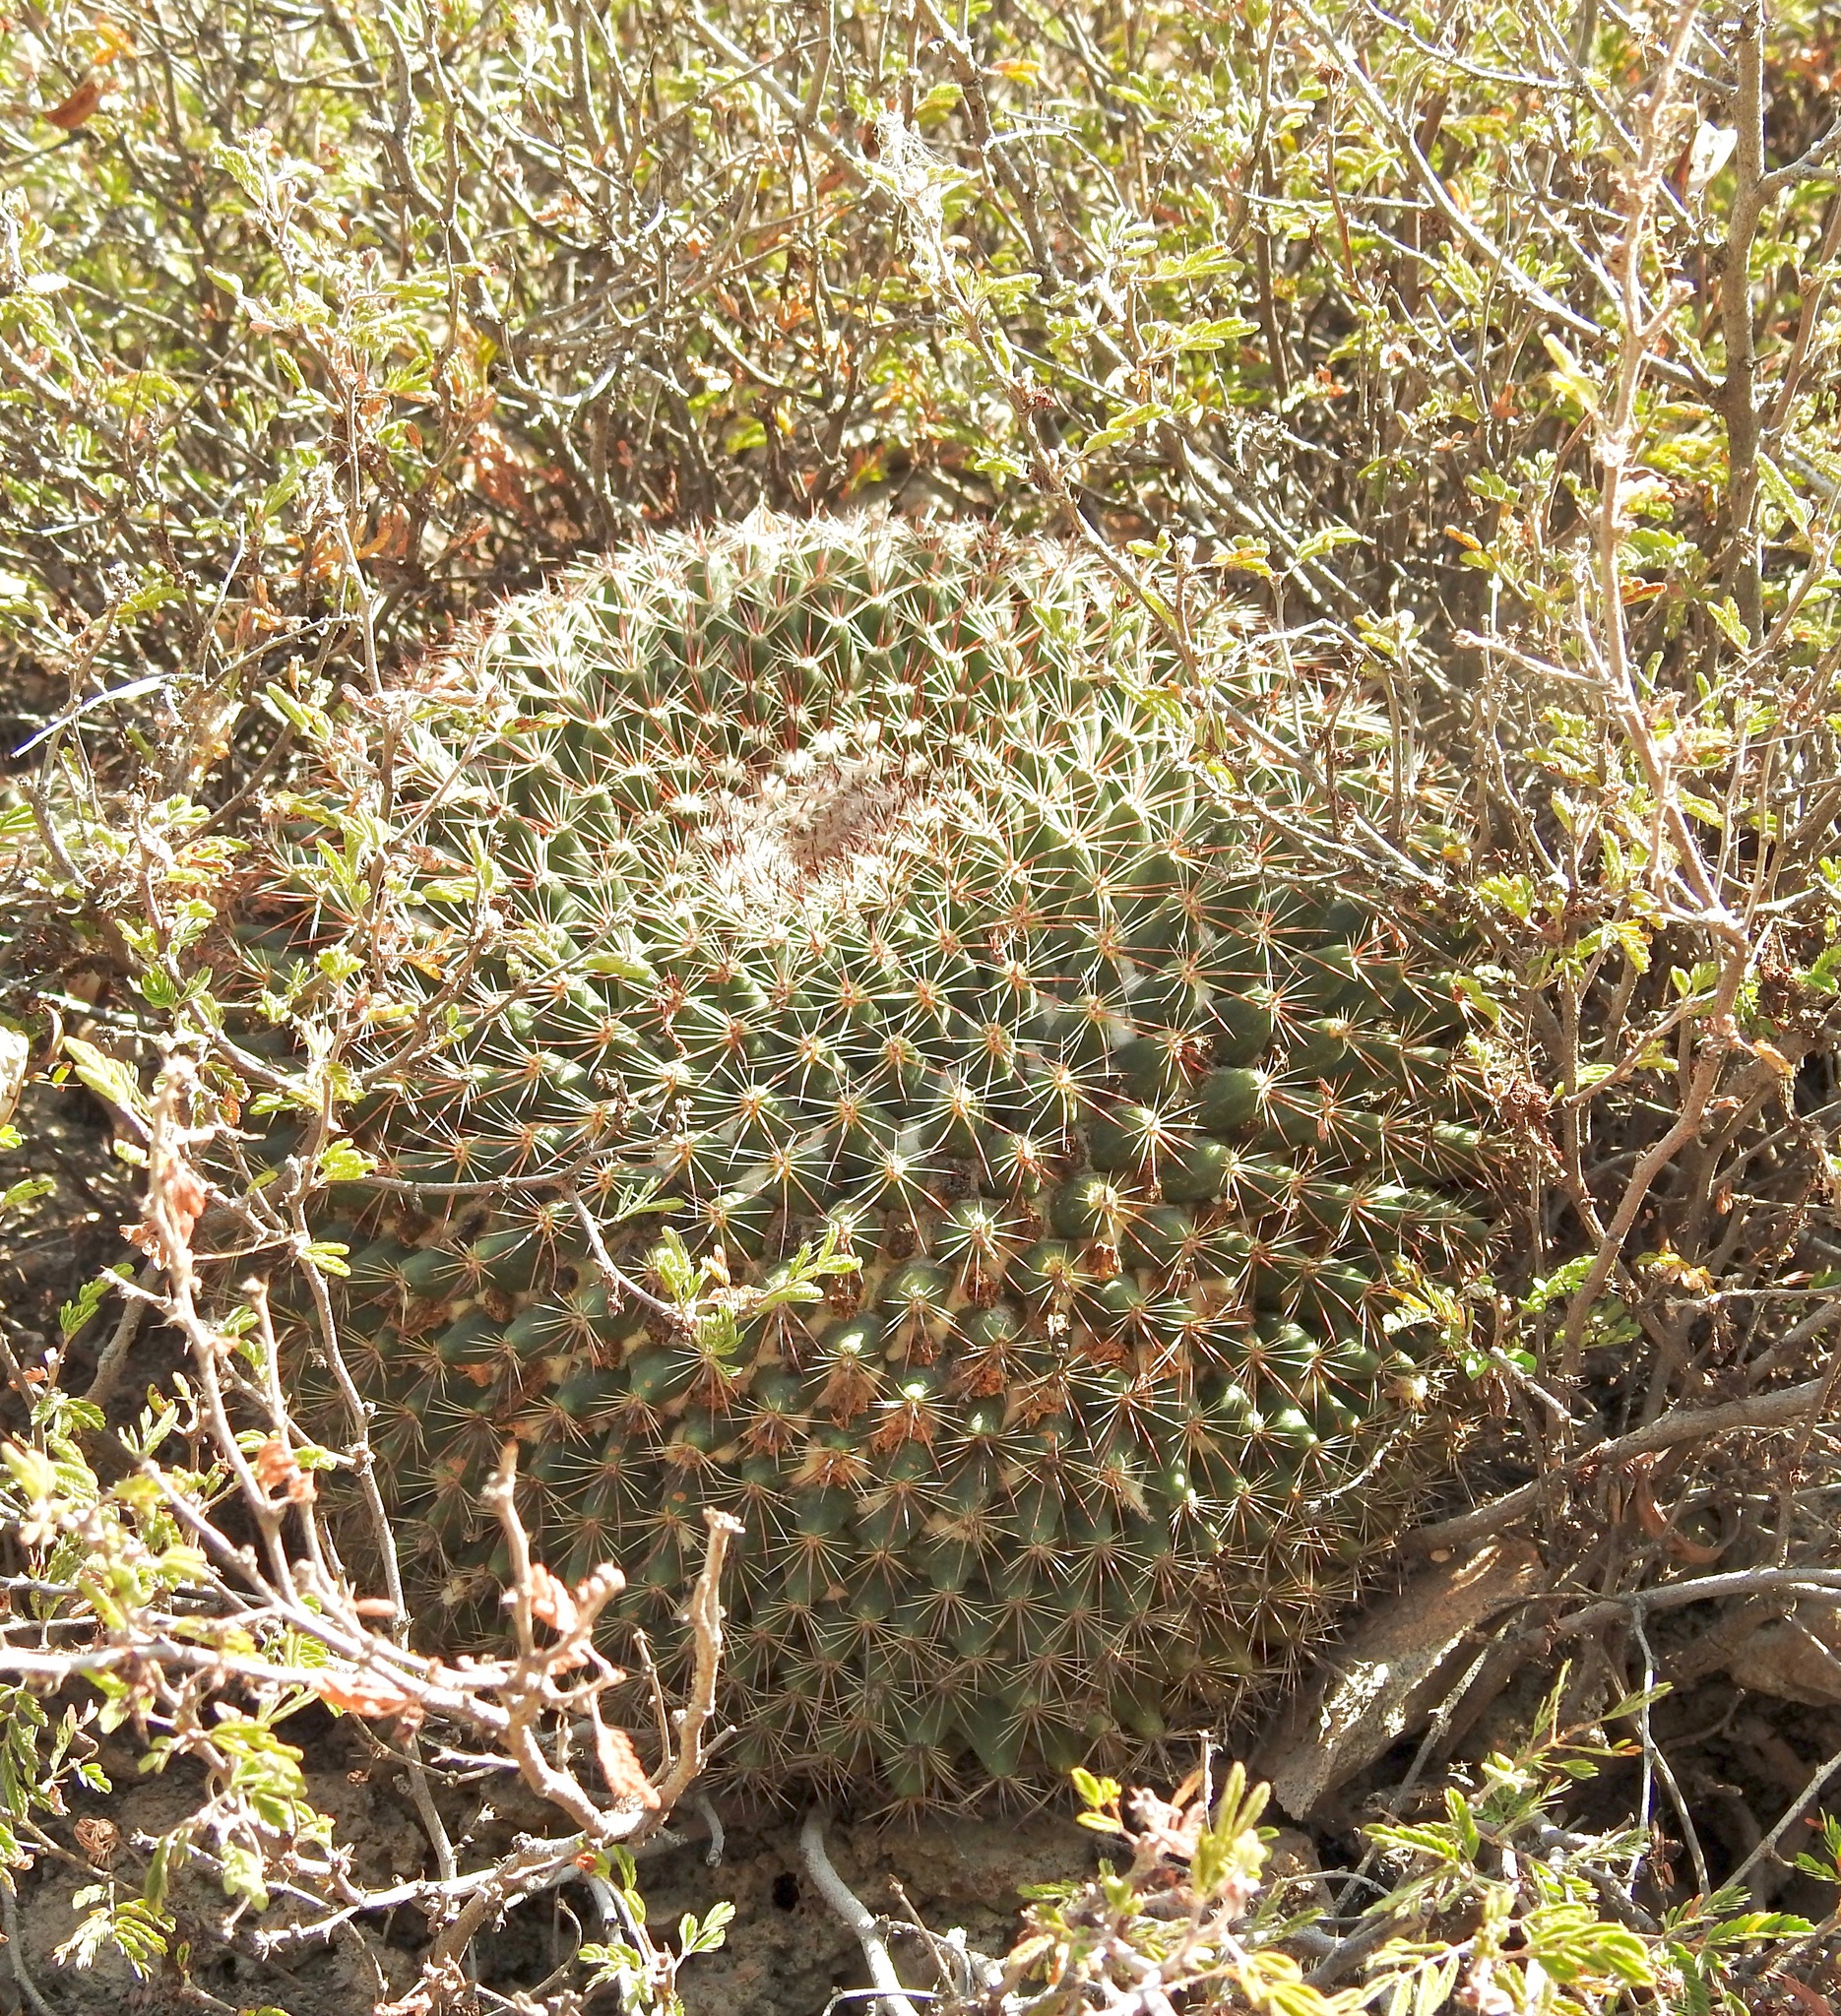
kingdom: Plantae
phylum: Tracheophyta
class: Magnoliopsida
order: Caryophyllales
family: Cactaceae
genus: Mammillaria
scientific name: Mammillaria heyderi
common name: Little nipple cactus
